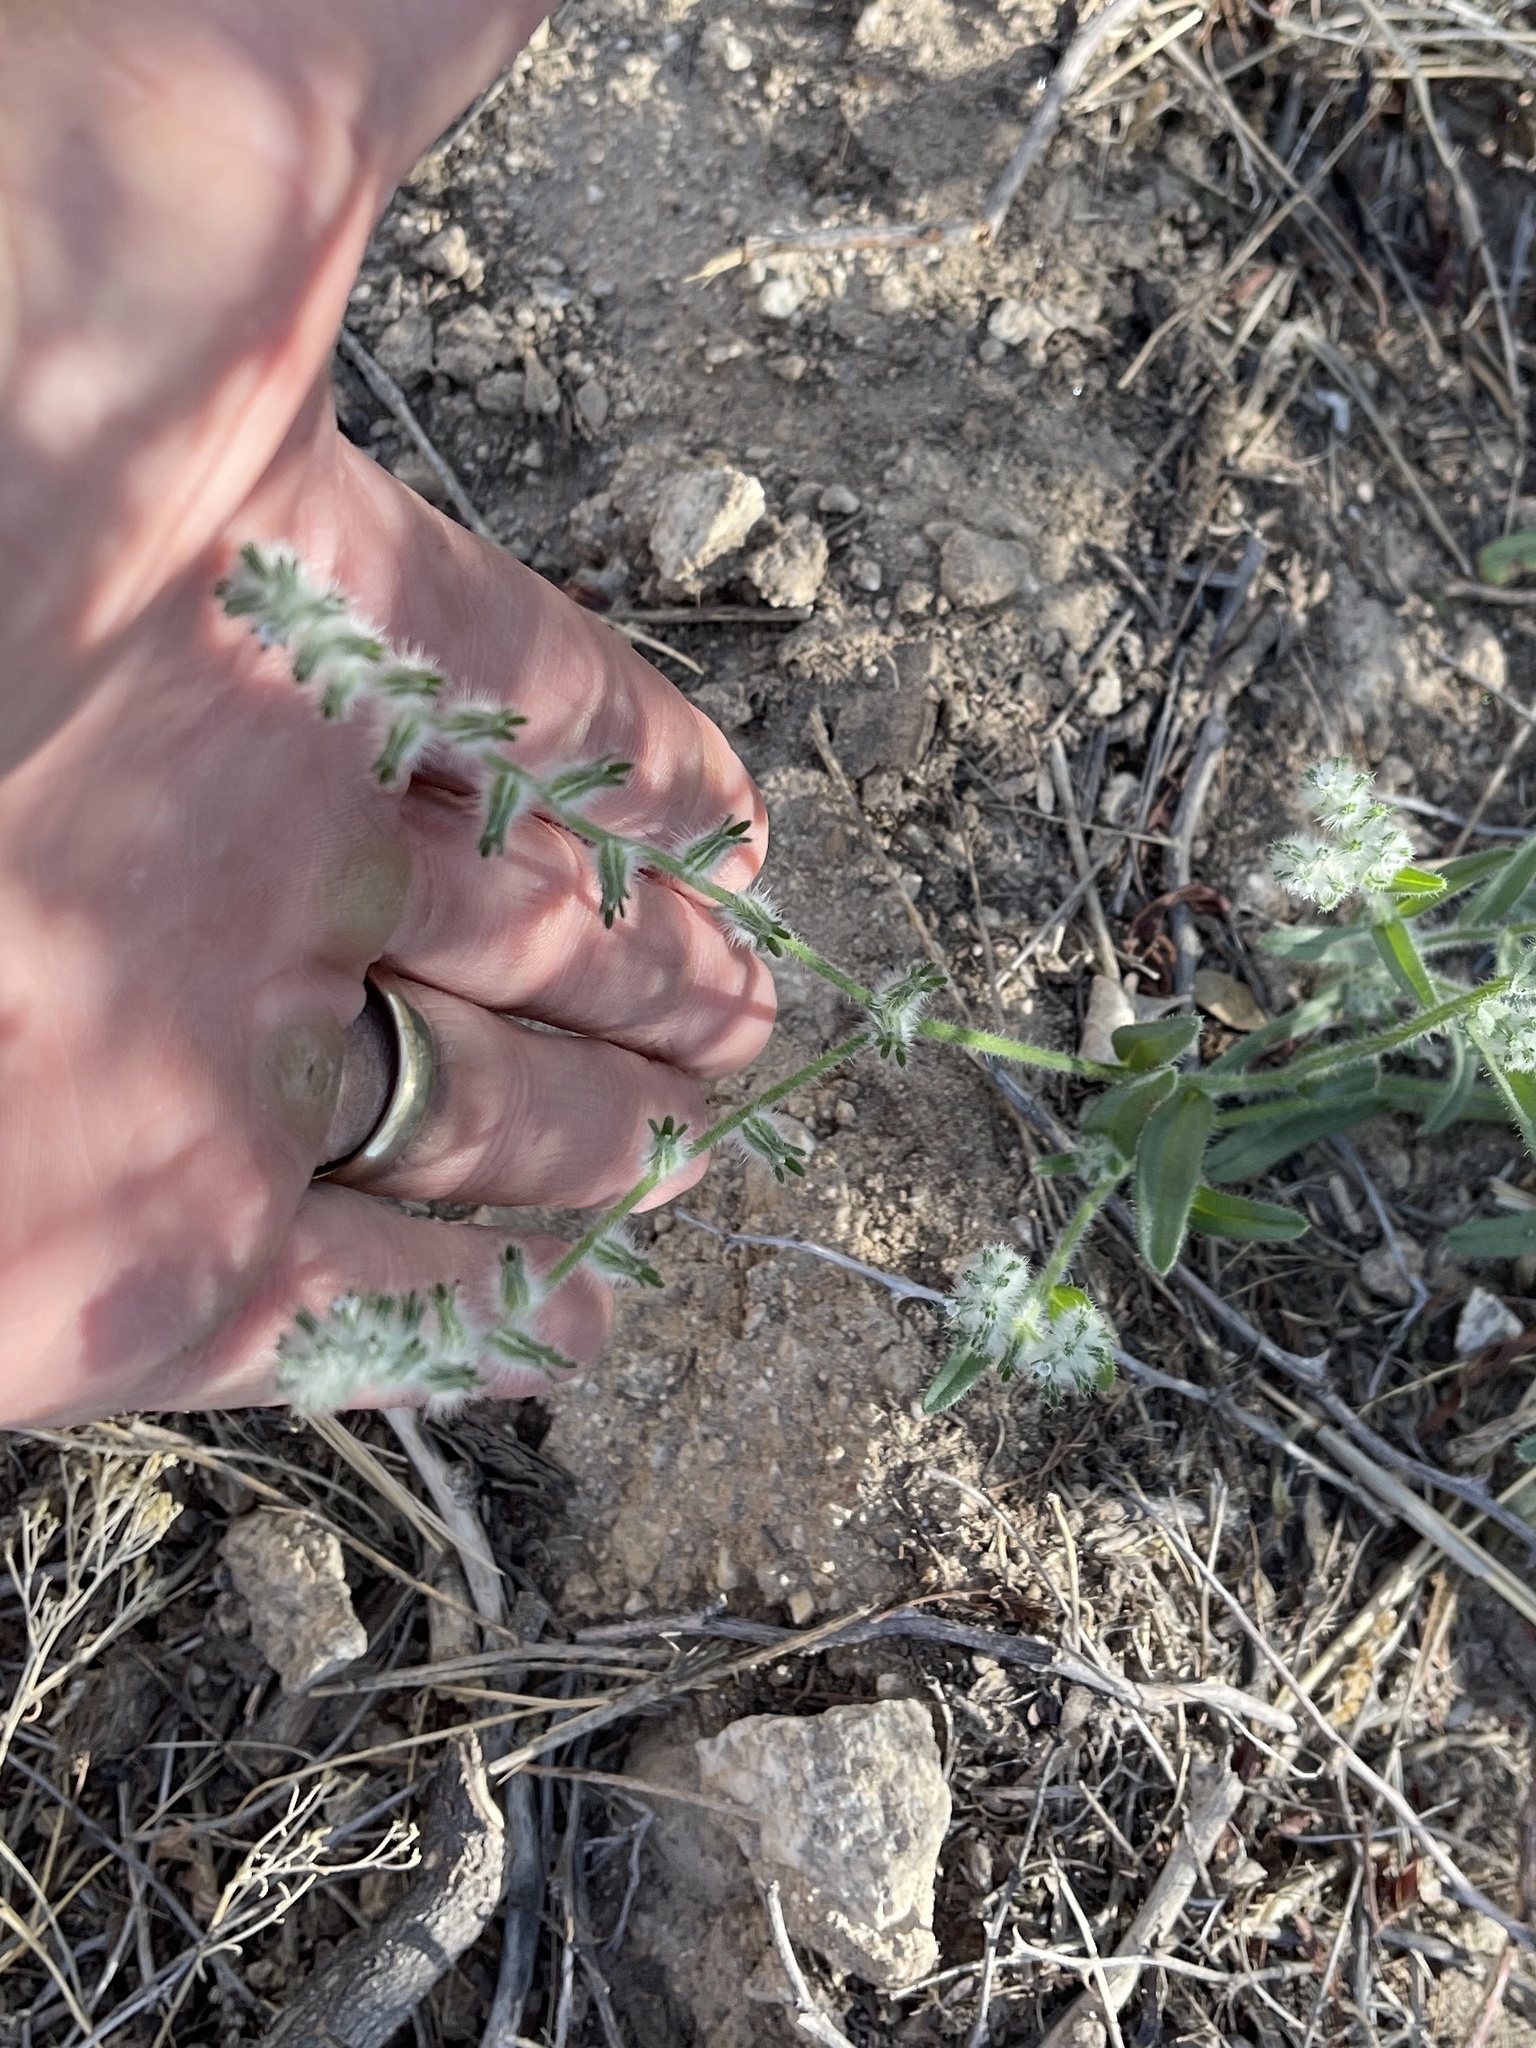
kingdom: Plantae
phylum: Tracheophyta
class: Magnoliopsida
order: Boraginales
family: Boraginaceae
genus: Lappula
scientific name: Lappula occidentalis
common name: Western stickseed
